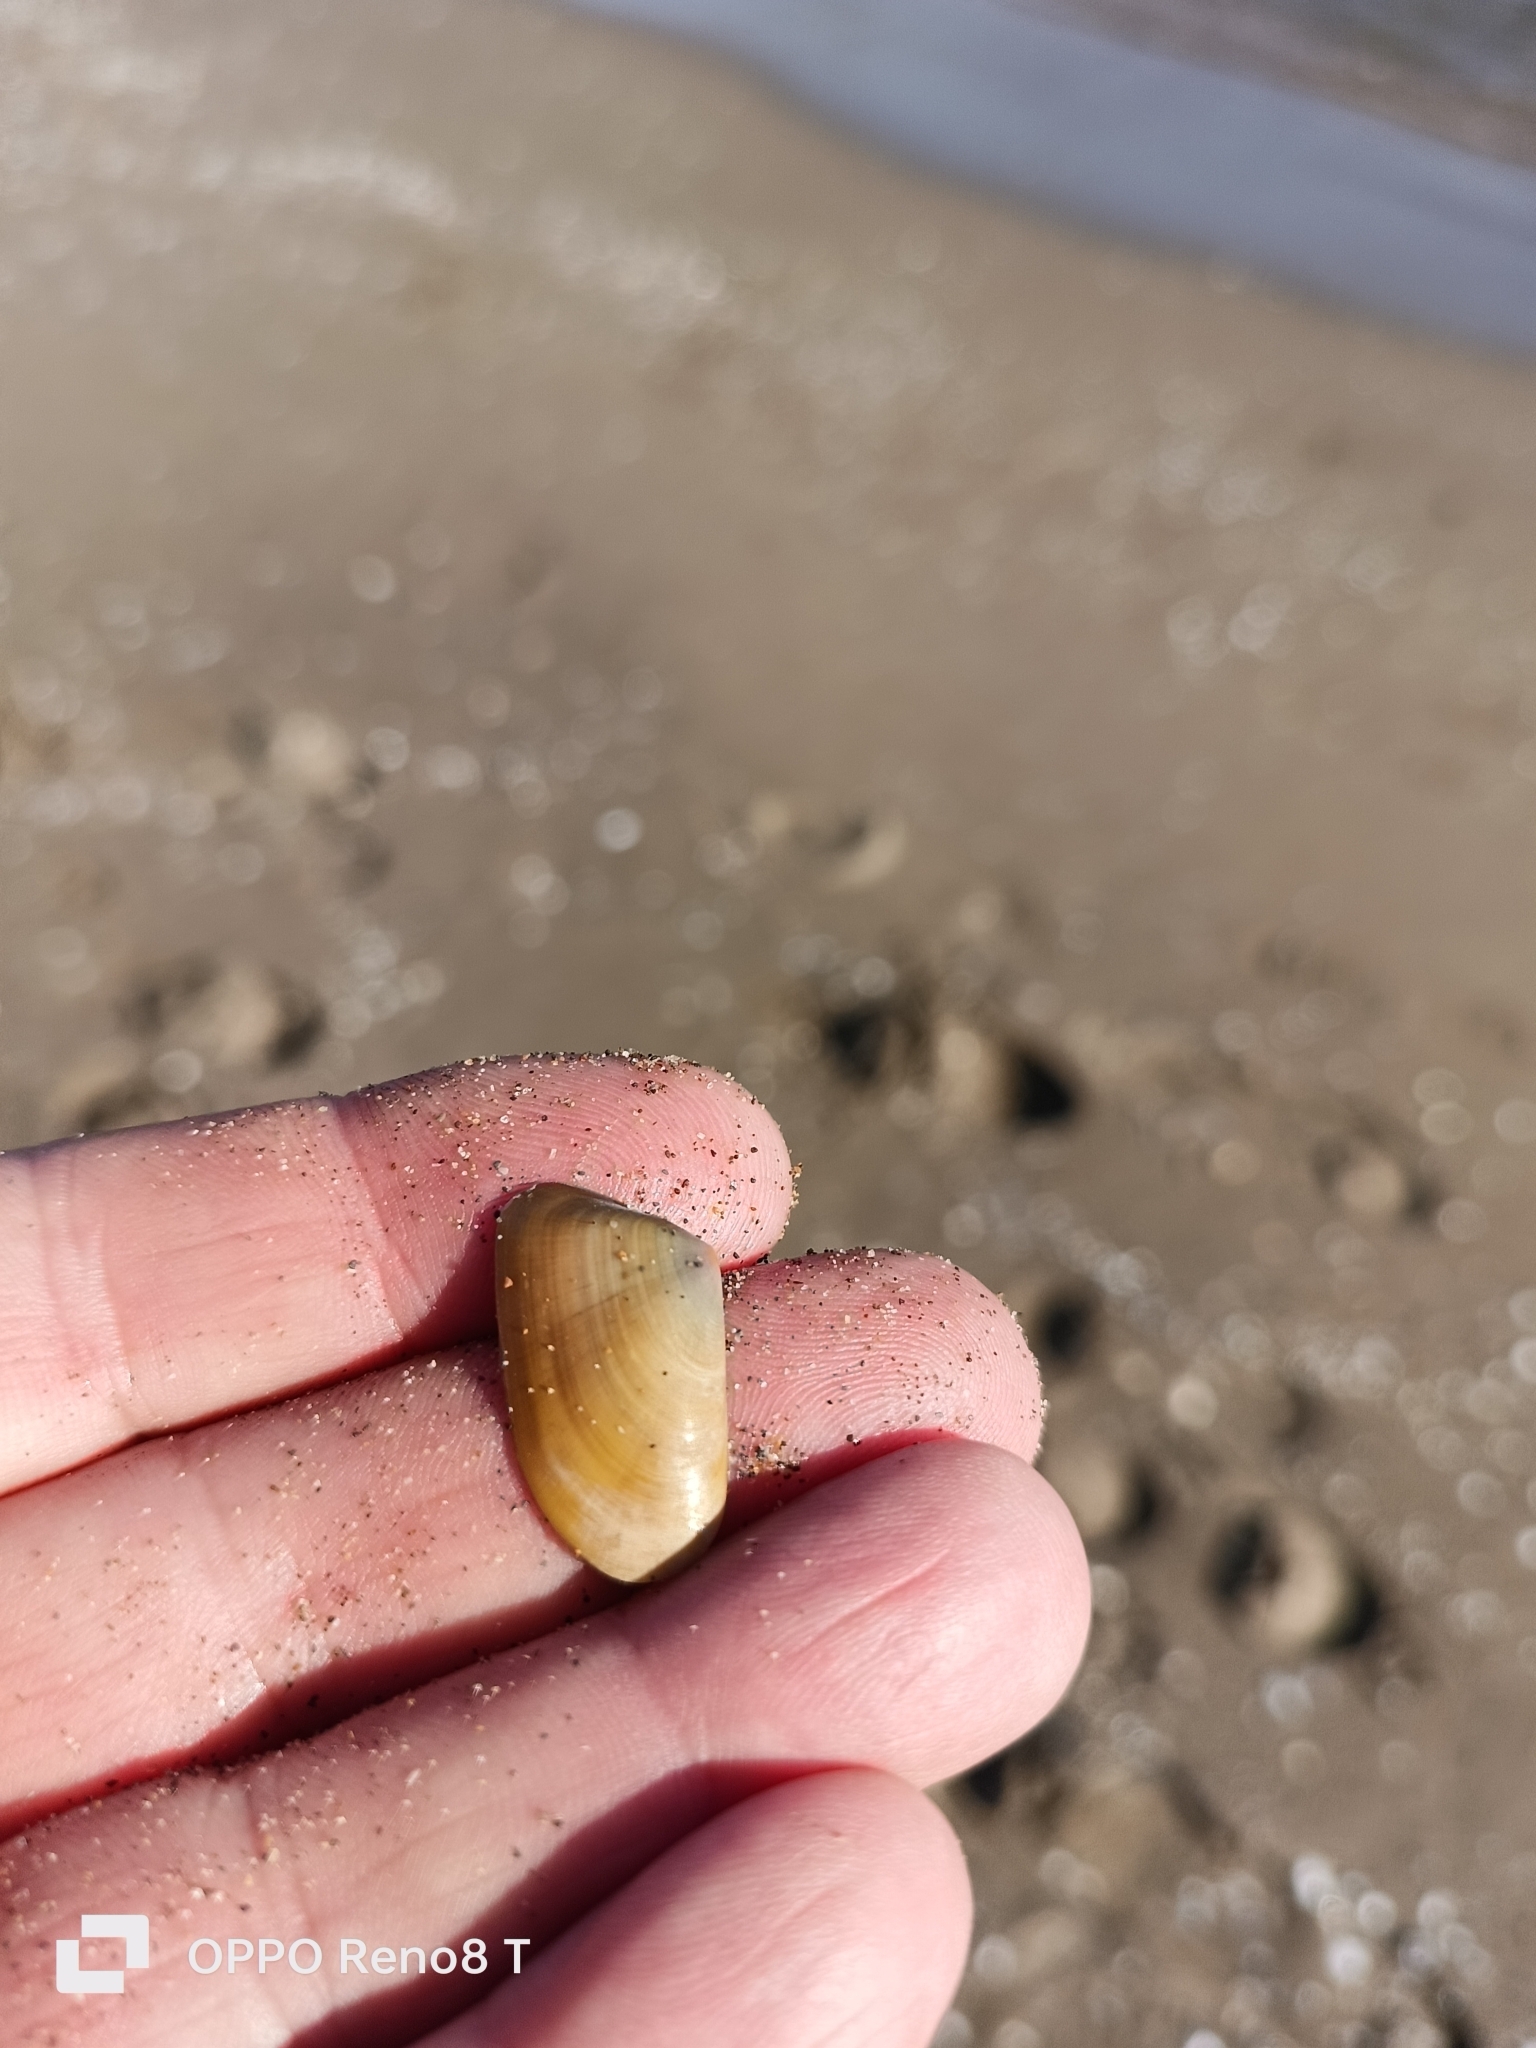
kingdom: Animalia
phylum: Mollusca
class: Bivalvia
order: Cardiida
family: Donacidae
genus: Donax
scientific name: Donax trunculus
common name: Truncate donax
